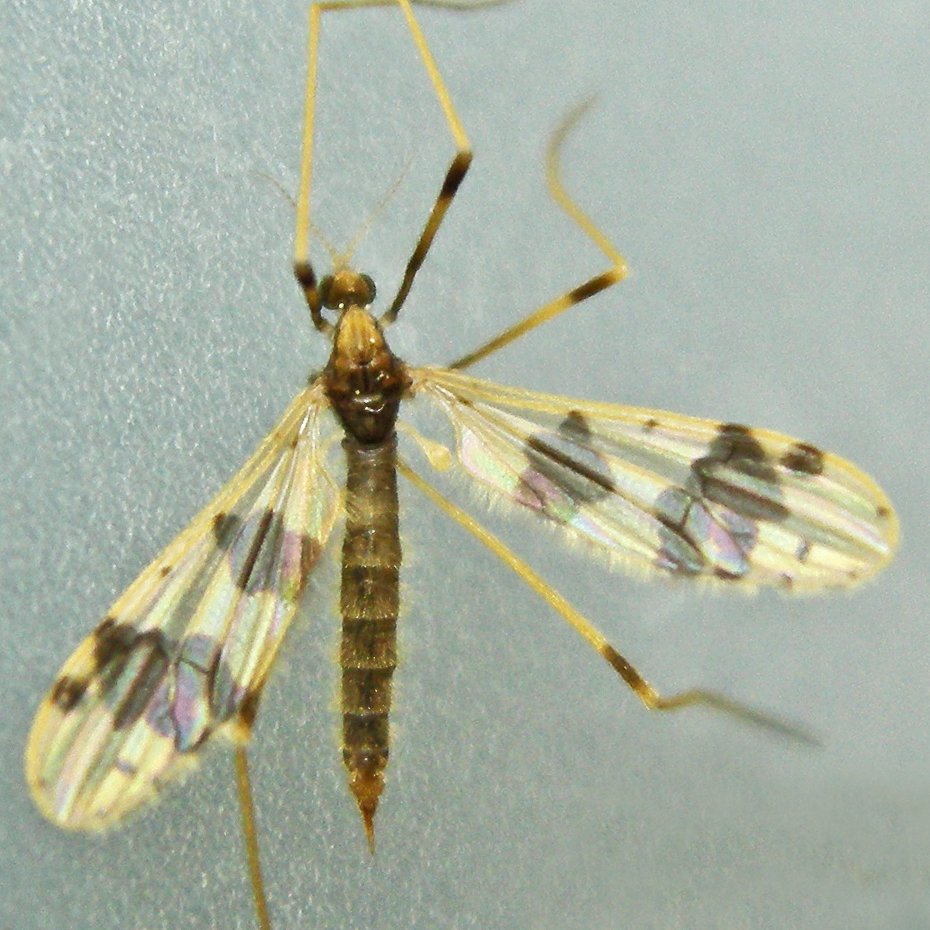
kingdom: Animalia
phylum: Arthropoda
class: Insecta
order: Diptera
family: Limoniidae
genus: Ilisia
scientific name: Ilisia venusta
